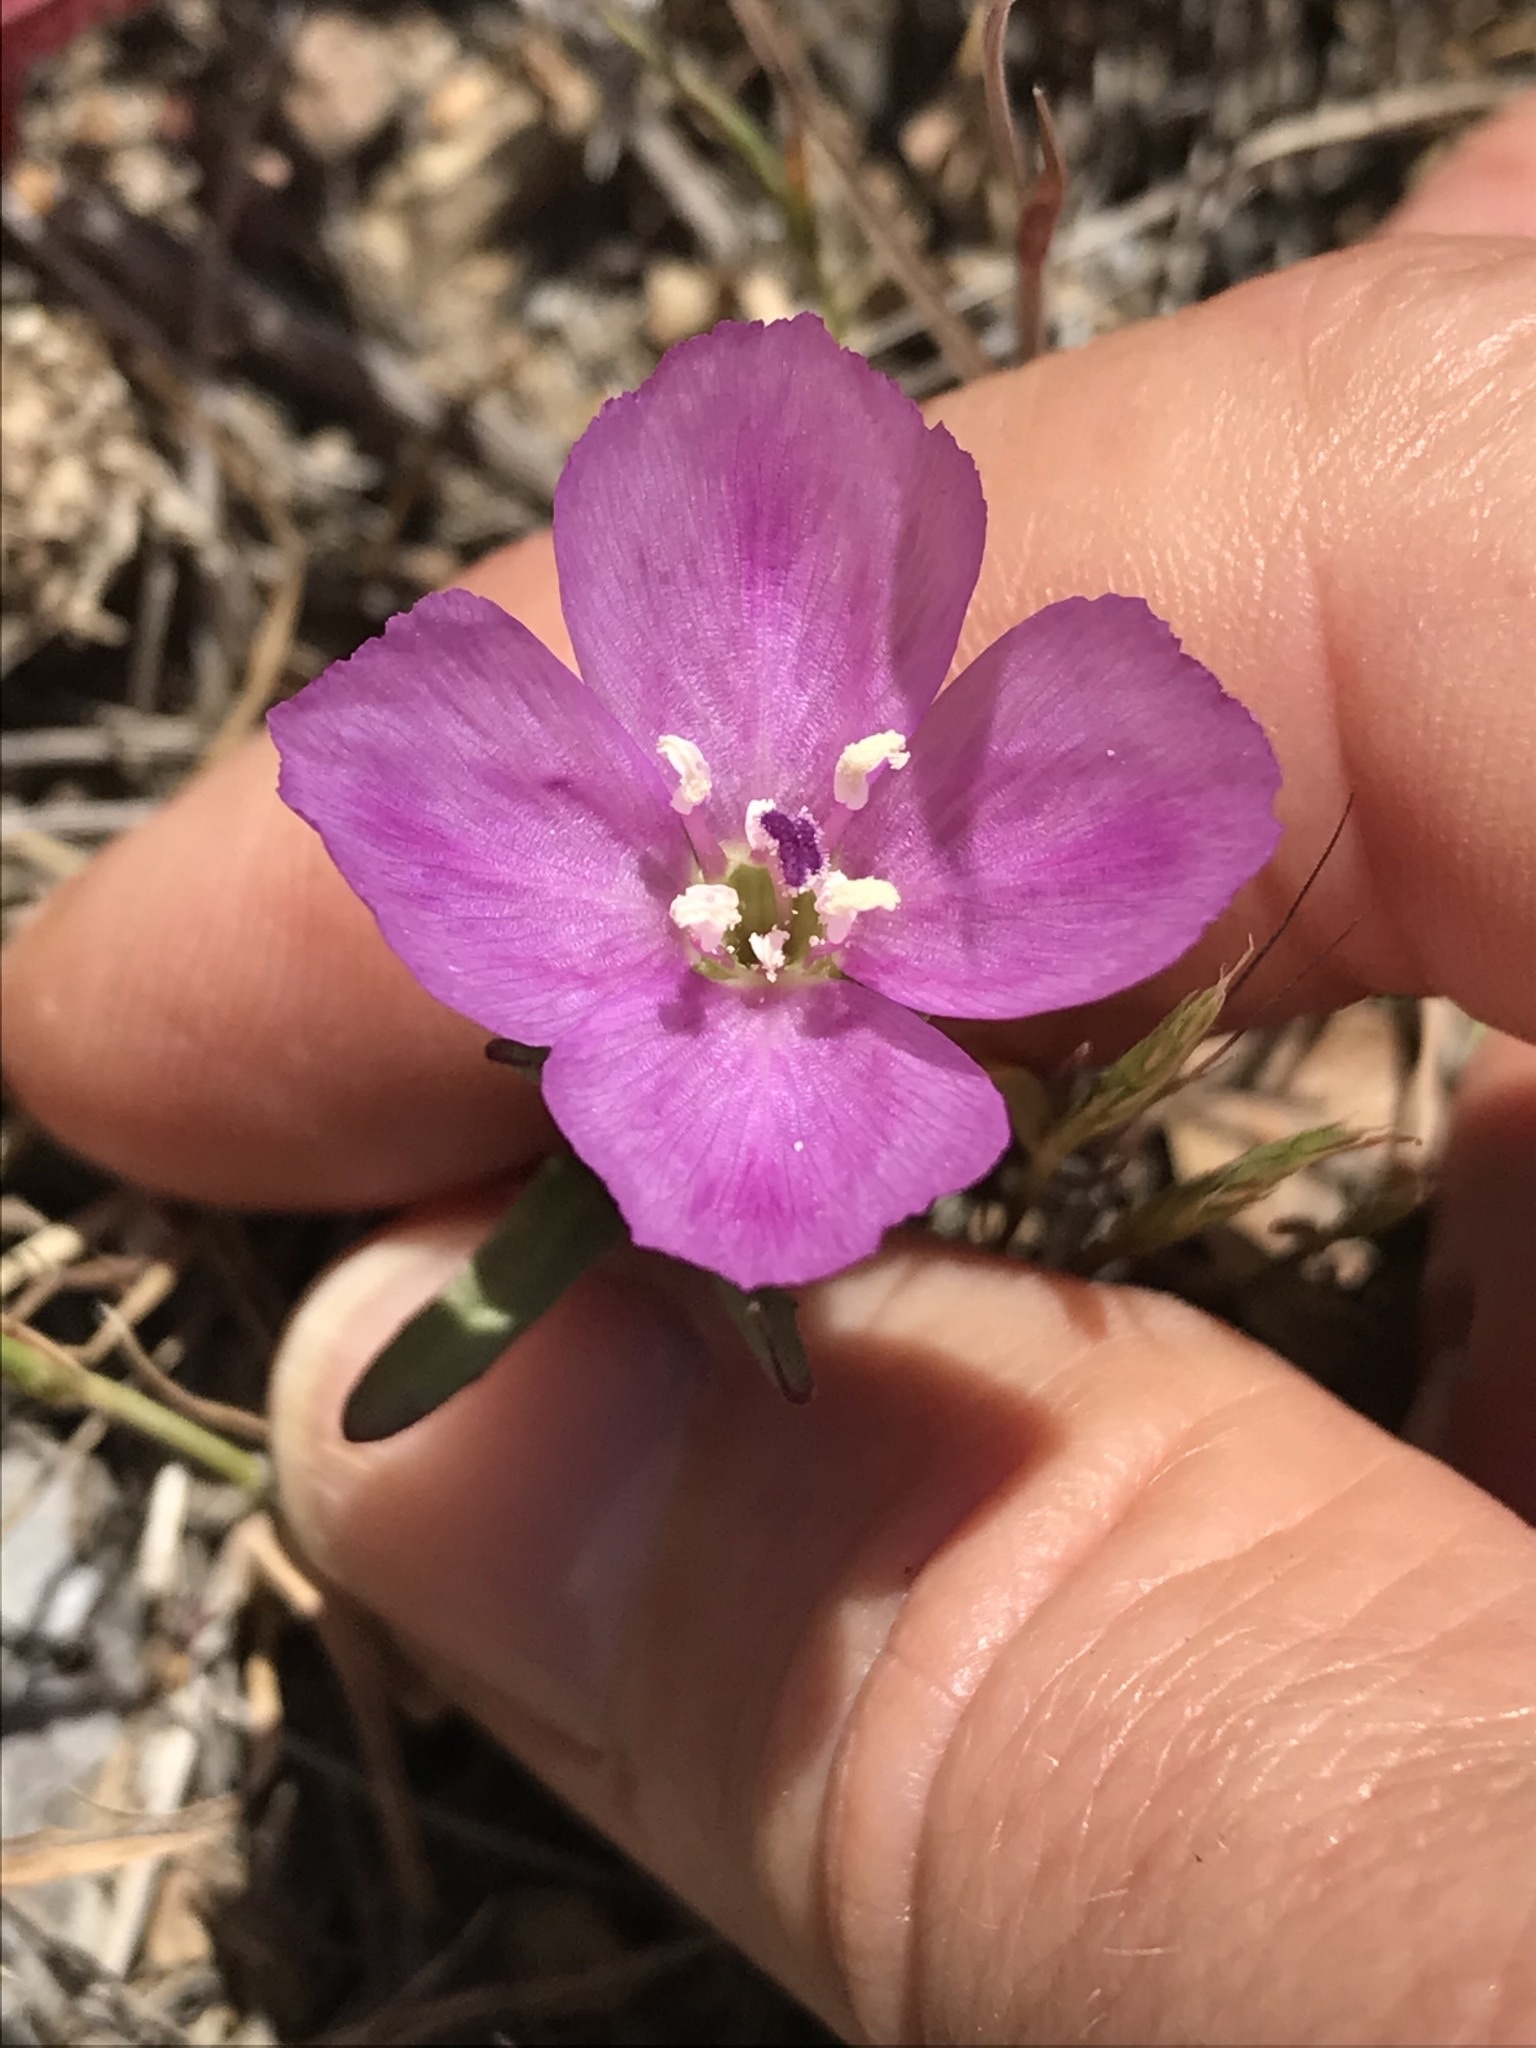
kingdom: Plantae
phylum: Tracheophyta
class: Magnoliopsida
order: Myrtales
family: Onagraceae
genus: Clarkia
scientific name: Clarkia purpurea
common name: Purple clarkia
